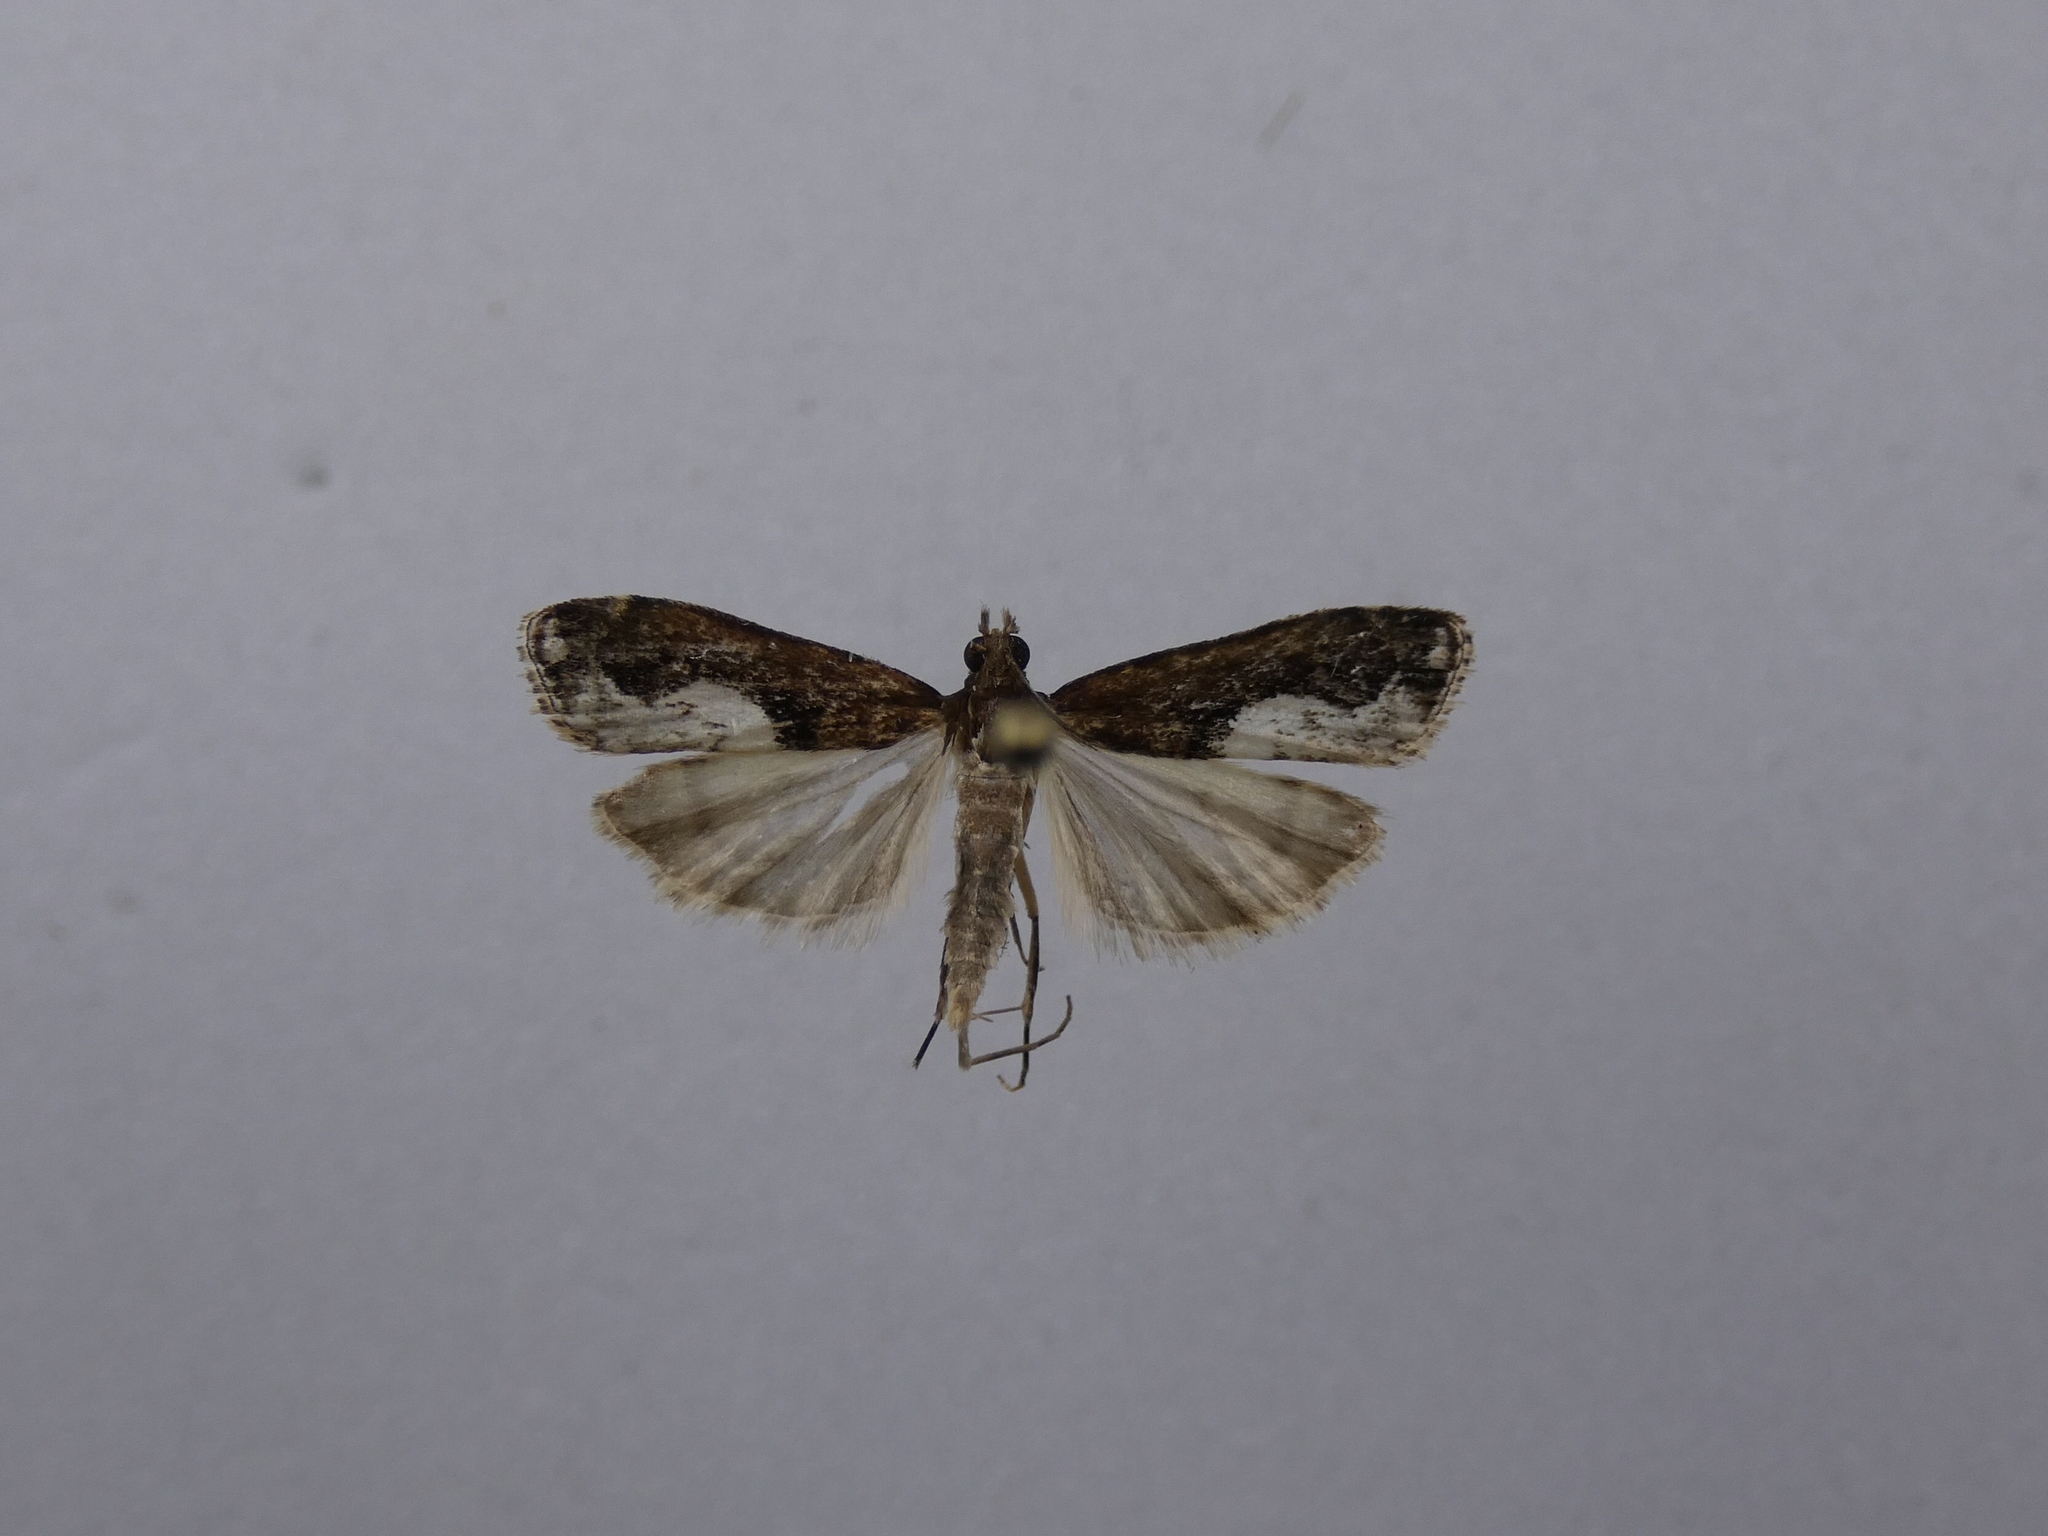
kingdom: Animalia
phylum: Arthropoda
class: Insecta
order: Lepidoptera
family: Crambidae
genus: Eudonia
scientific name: Eudonia hemiplaca
